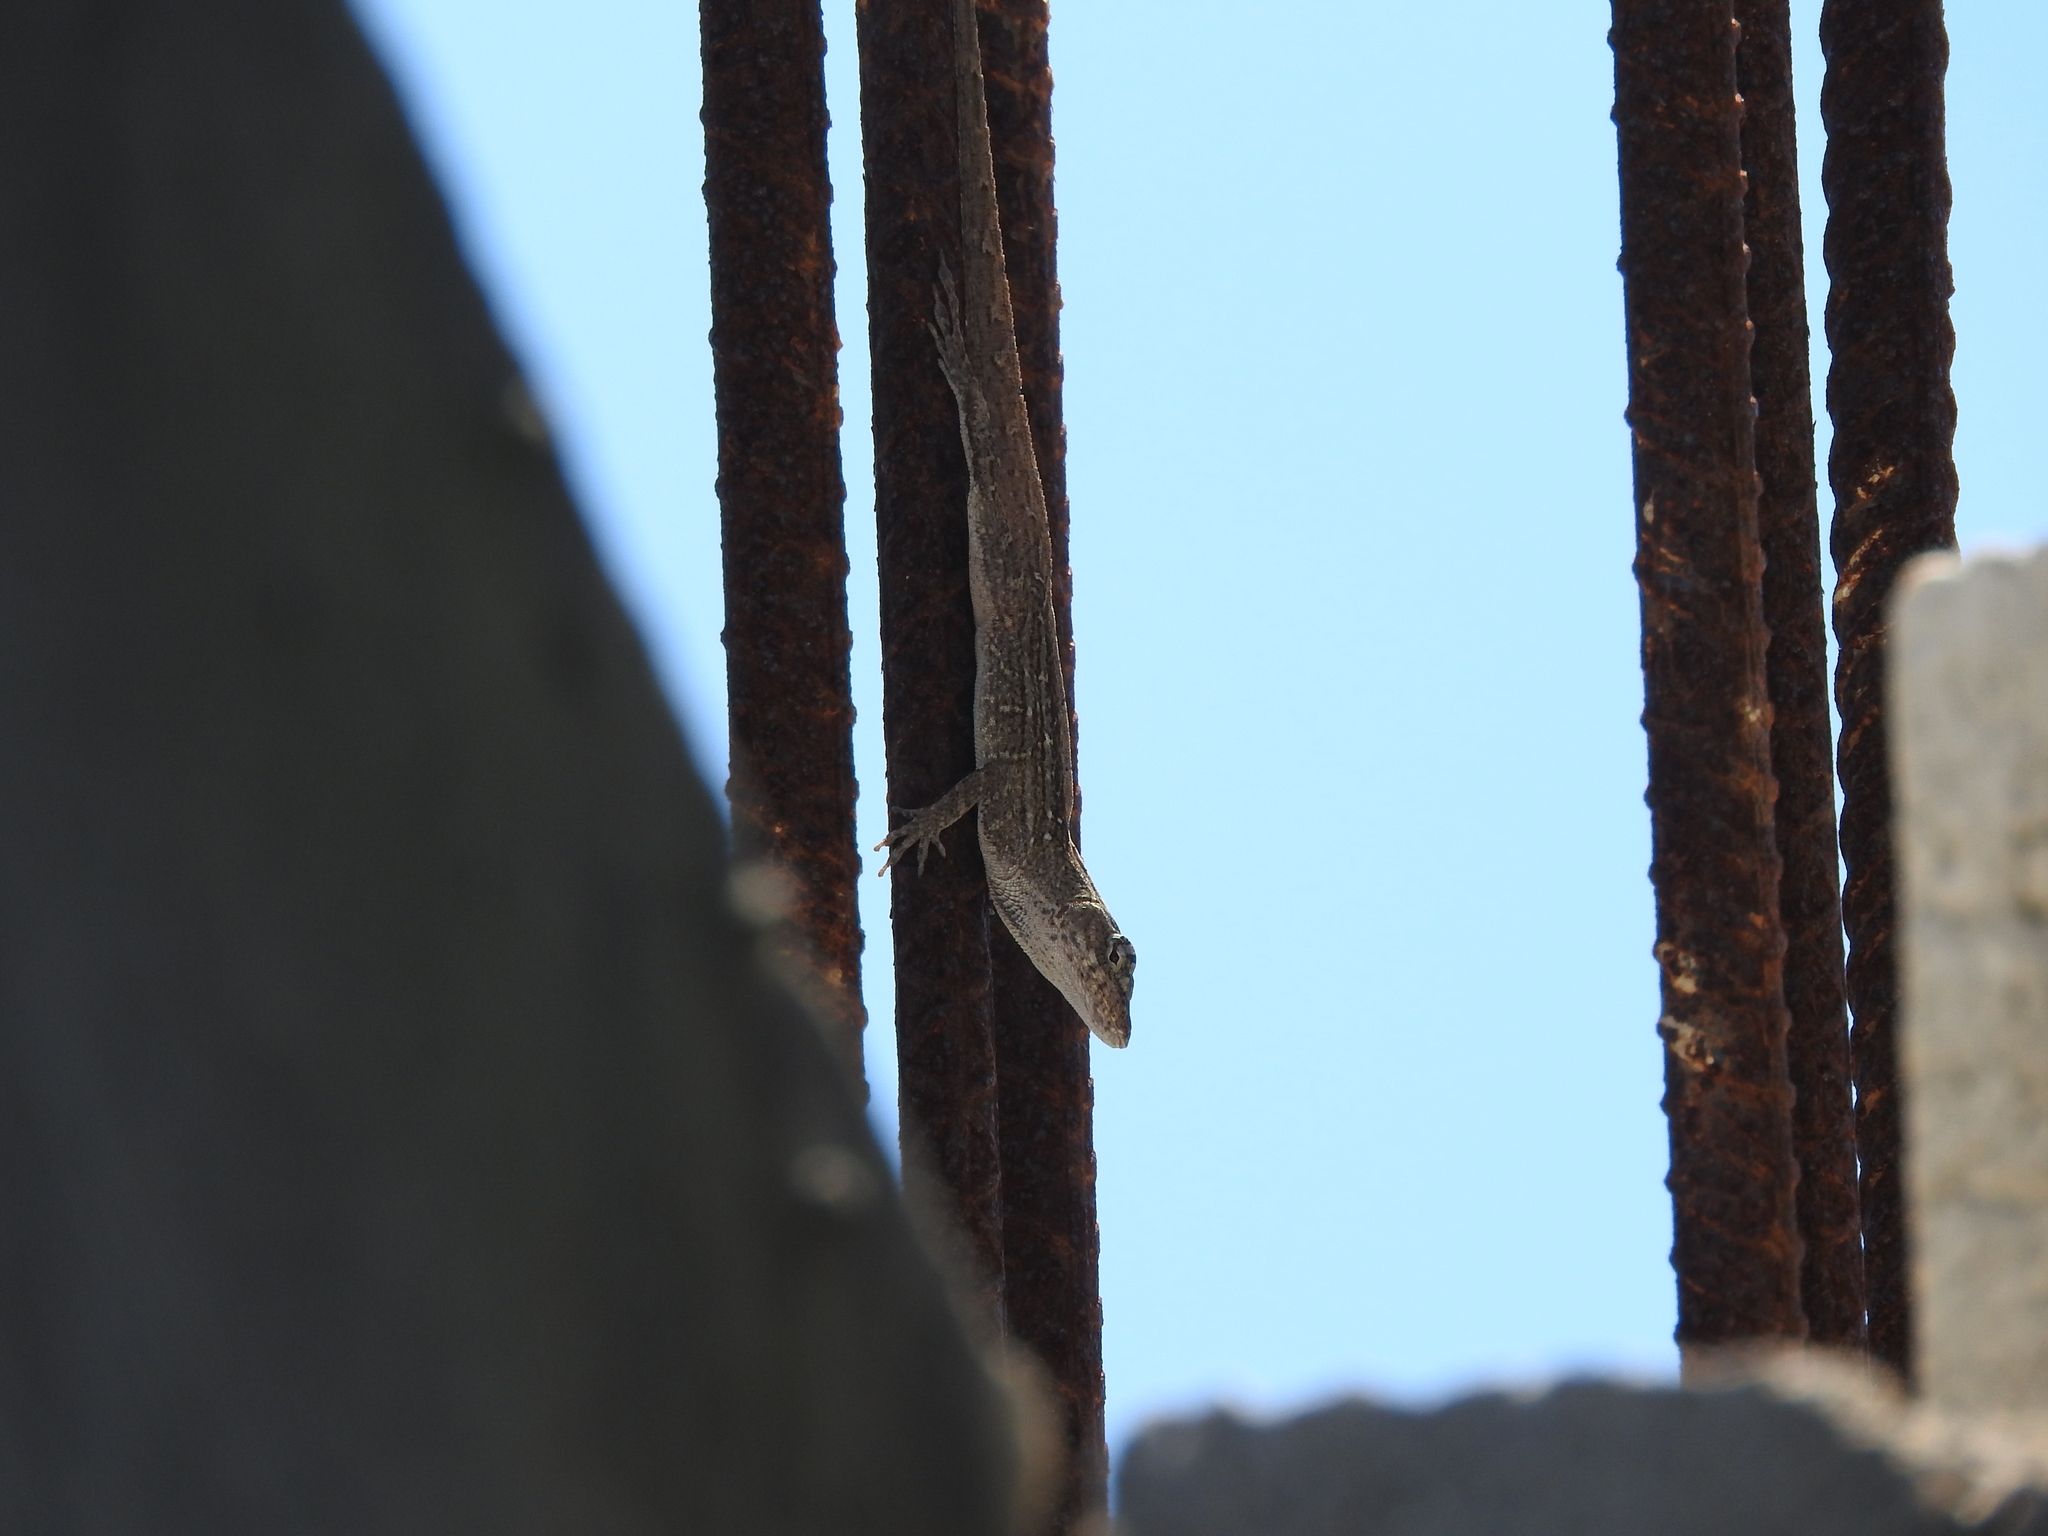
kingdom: Animalia
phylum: Chordata
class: Squamata
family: Dactyloidae
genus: Anolis
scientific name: Anolis sagrei
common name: Brown anole
